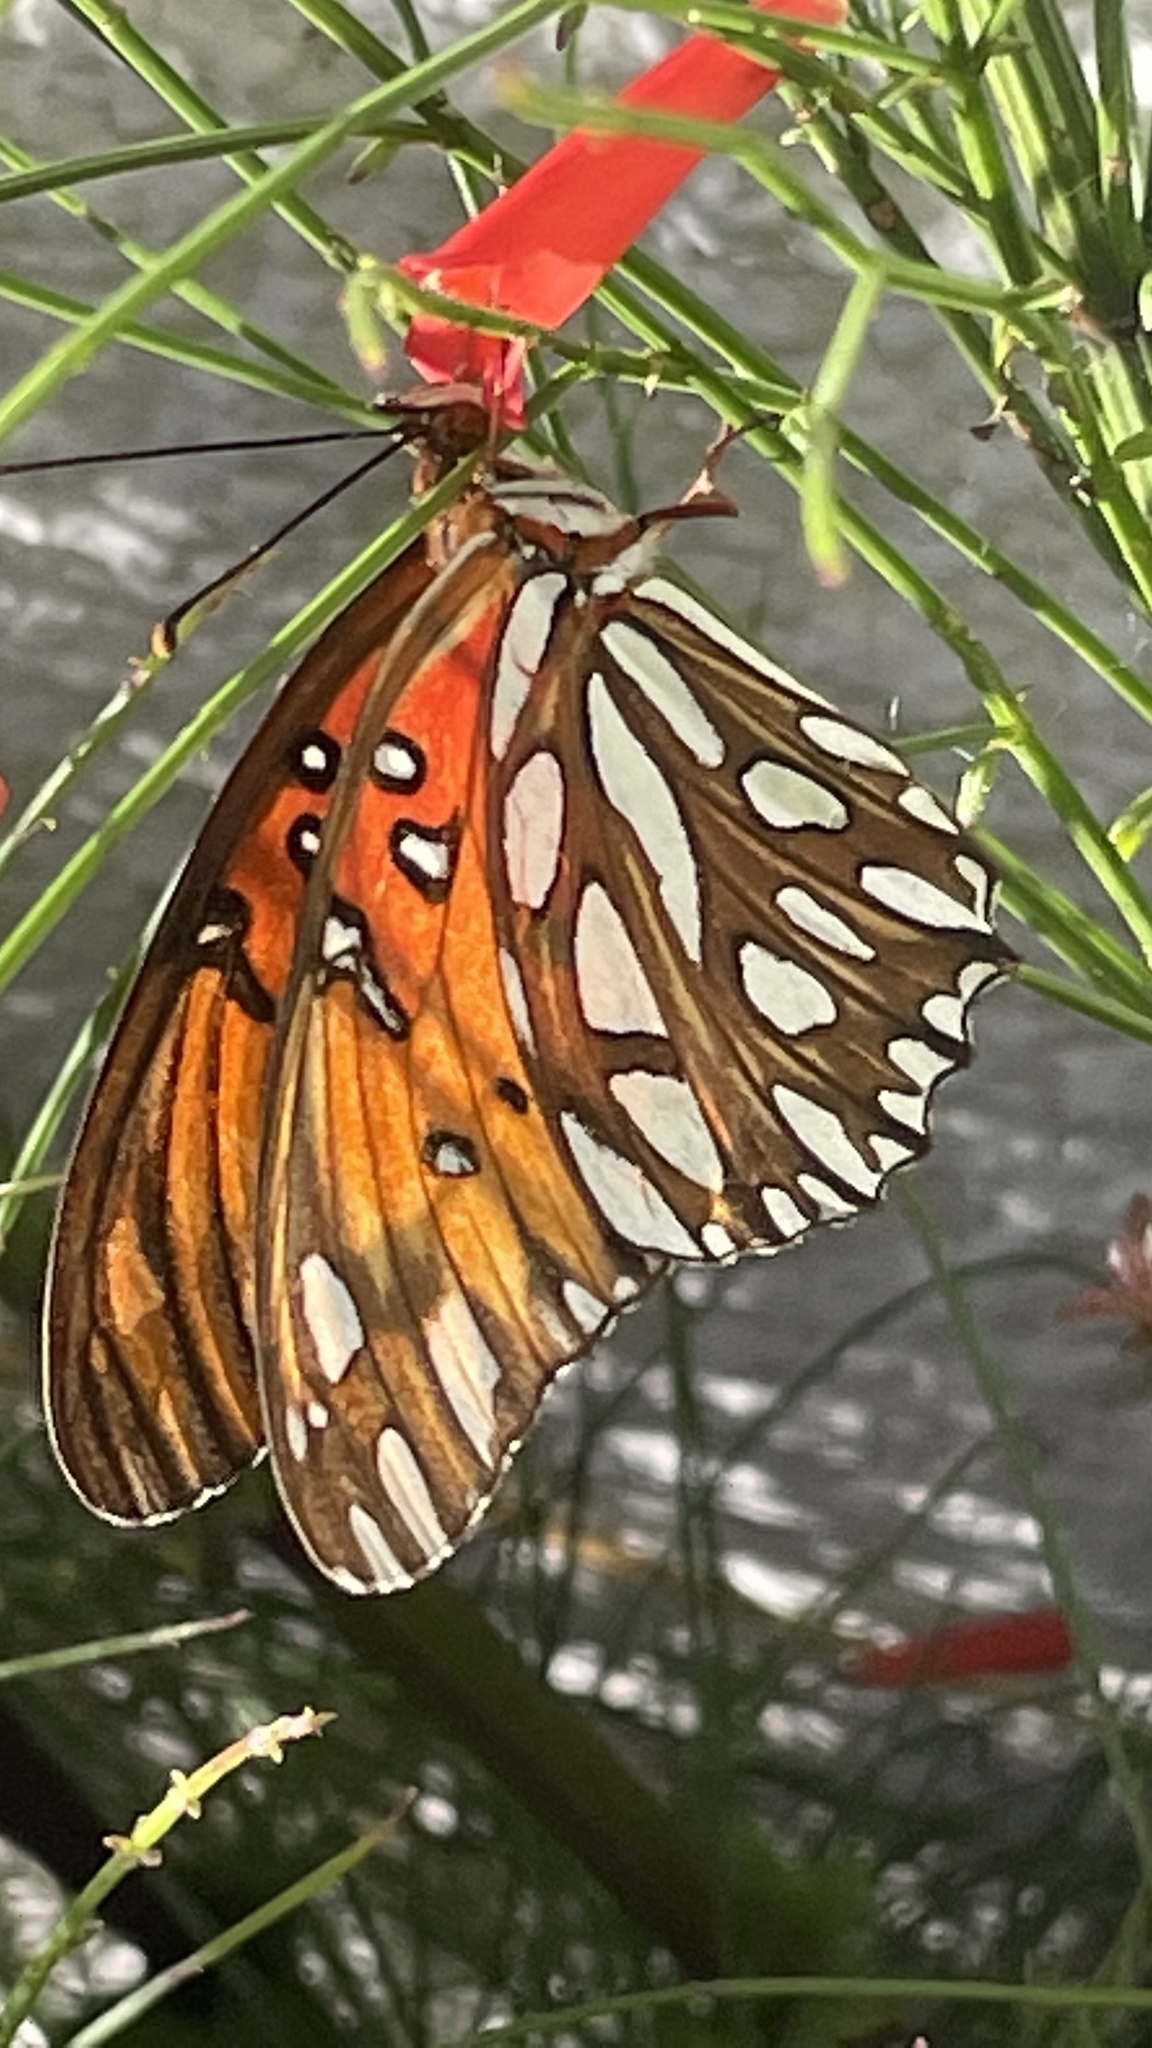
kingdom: Animalia
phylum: Arthropoda
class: Insecta
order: Lepidoptera
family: Nymphalidae
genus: Dione
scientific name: Dione vanillae
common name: Gulf fritillary
